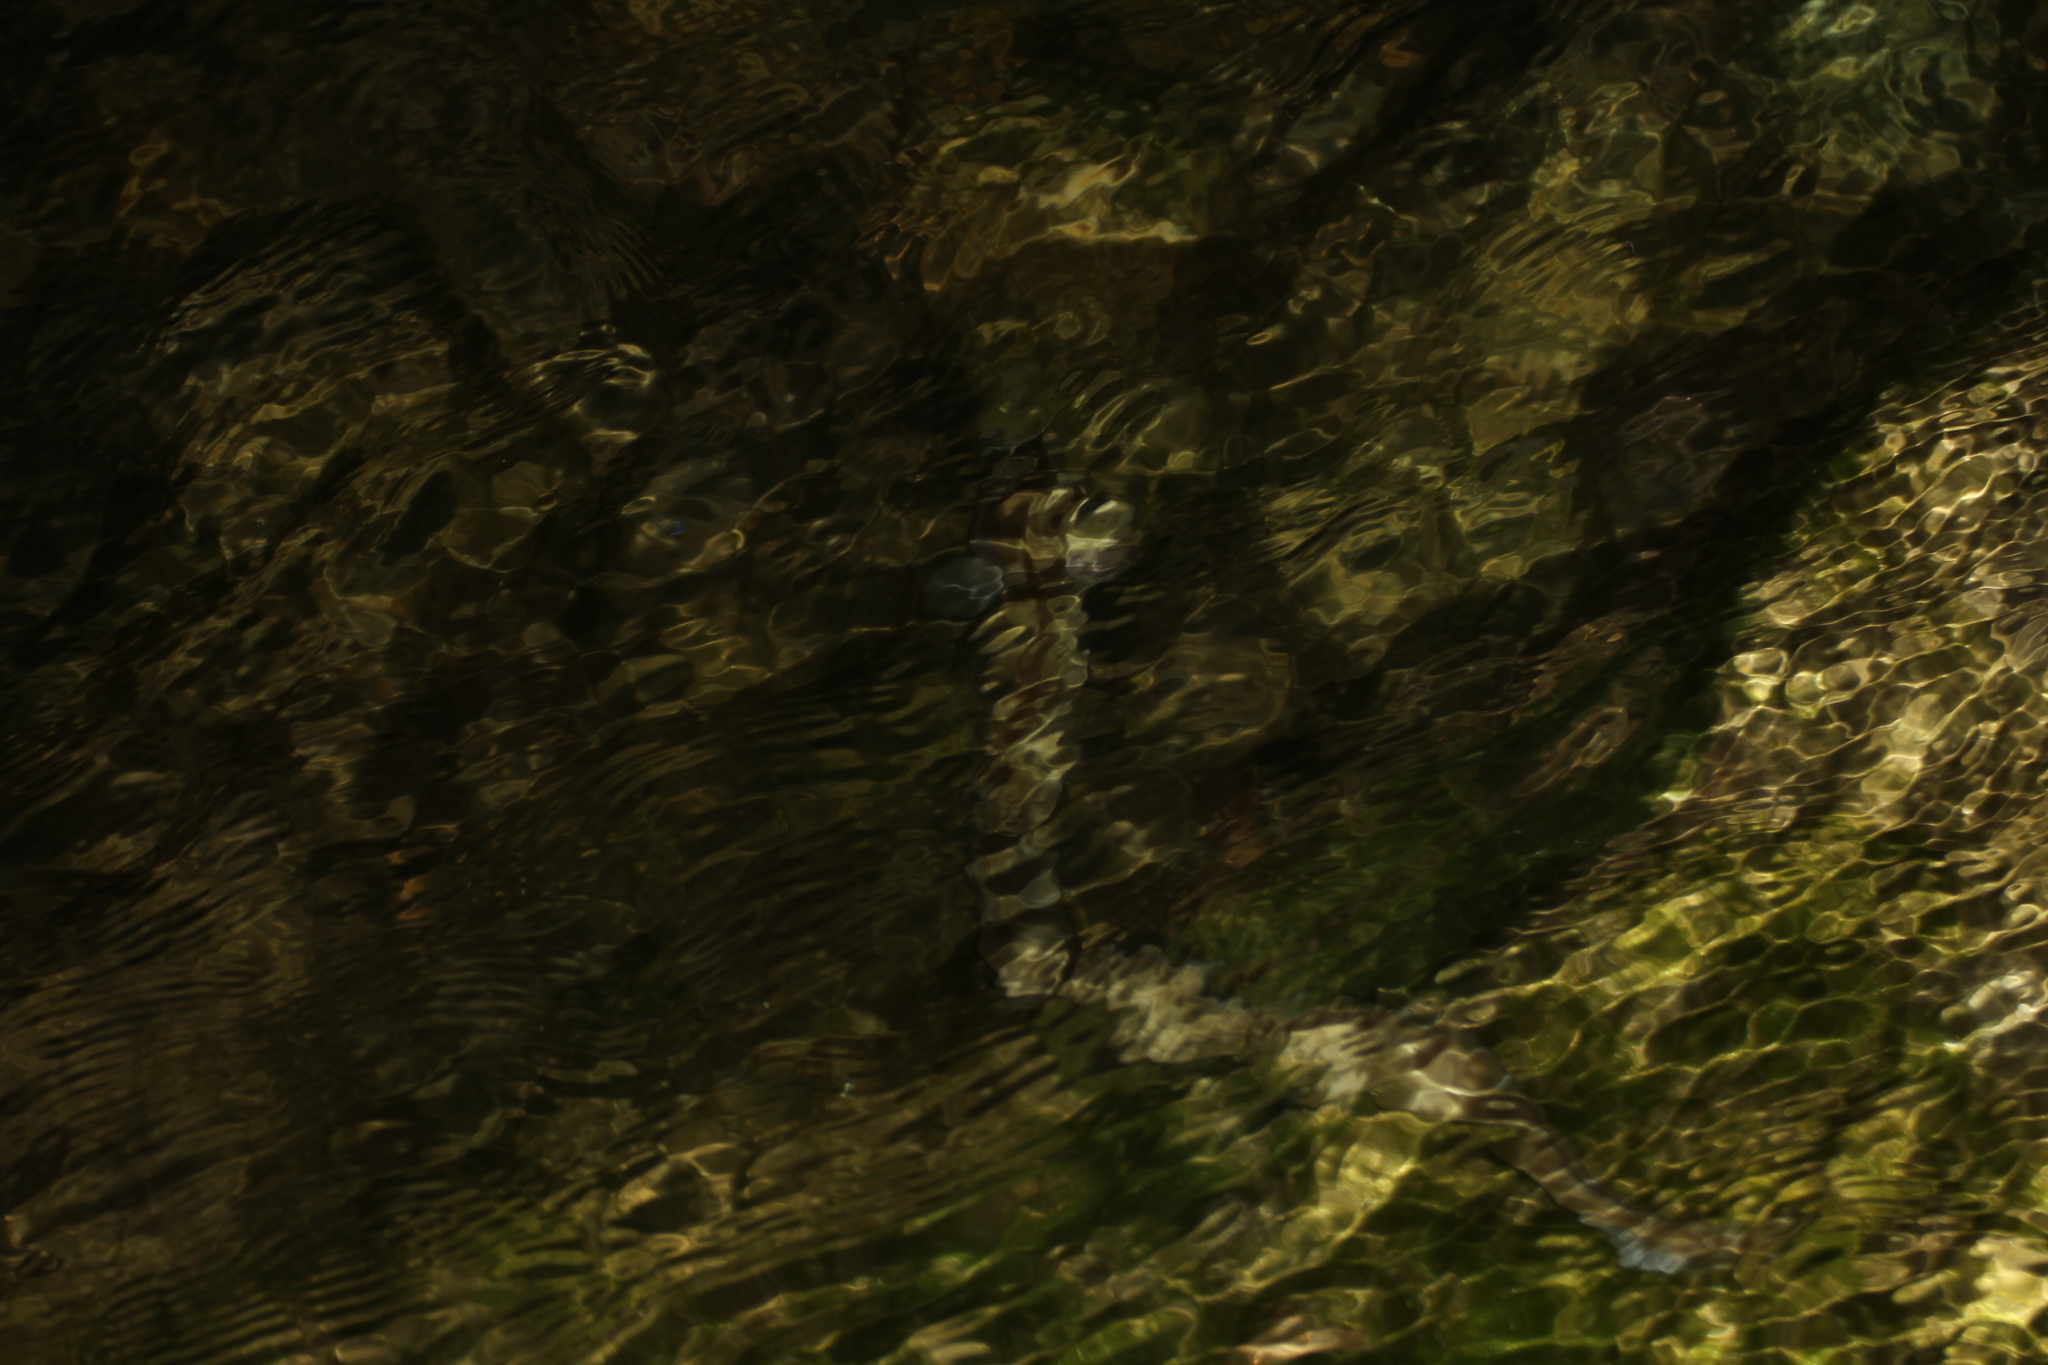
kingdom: Animalia
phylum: Chordata
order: Anguilliformes
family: Anguillidae
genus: Anguilla
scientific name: Anguilla anguilla
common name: European eel
